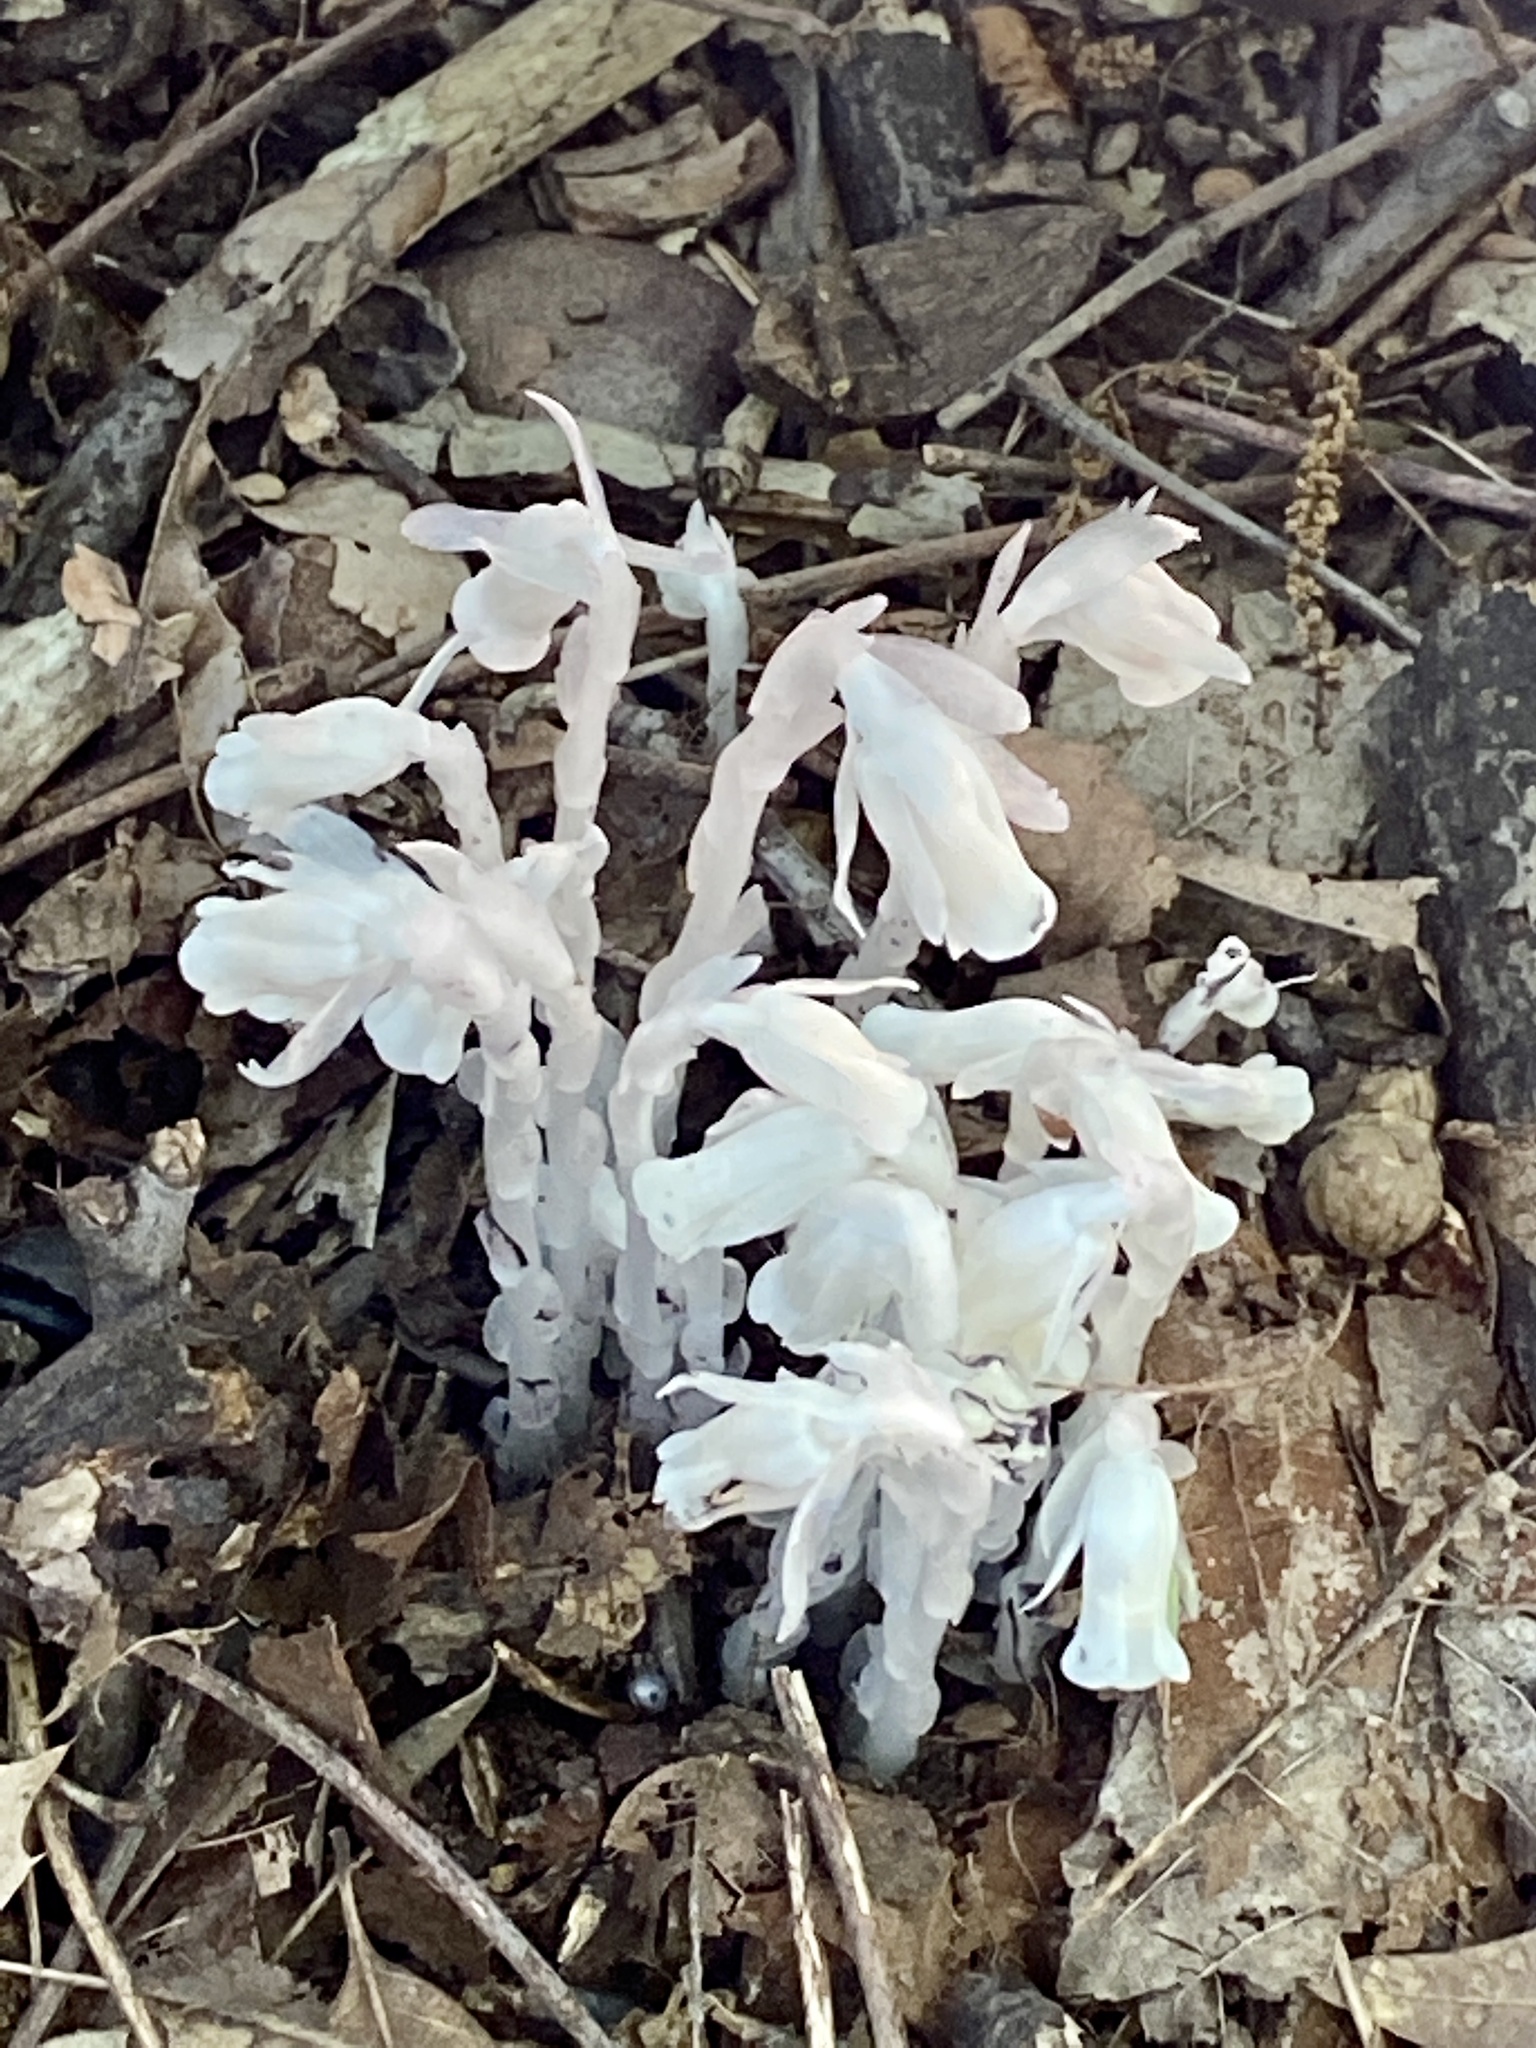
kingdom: Plantae
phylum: Tracheophyta
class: Magnoliopsida
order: Ericales
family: Ericaceae
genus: Monotropa
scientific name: Monotropa uniflora
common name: Convulsion root
